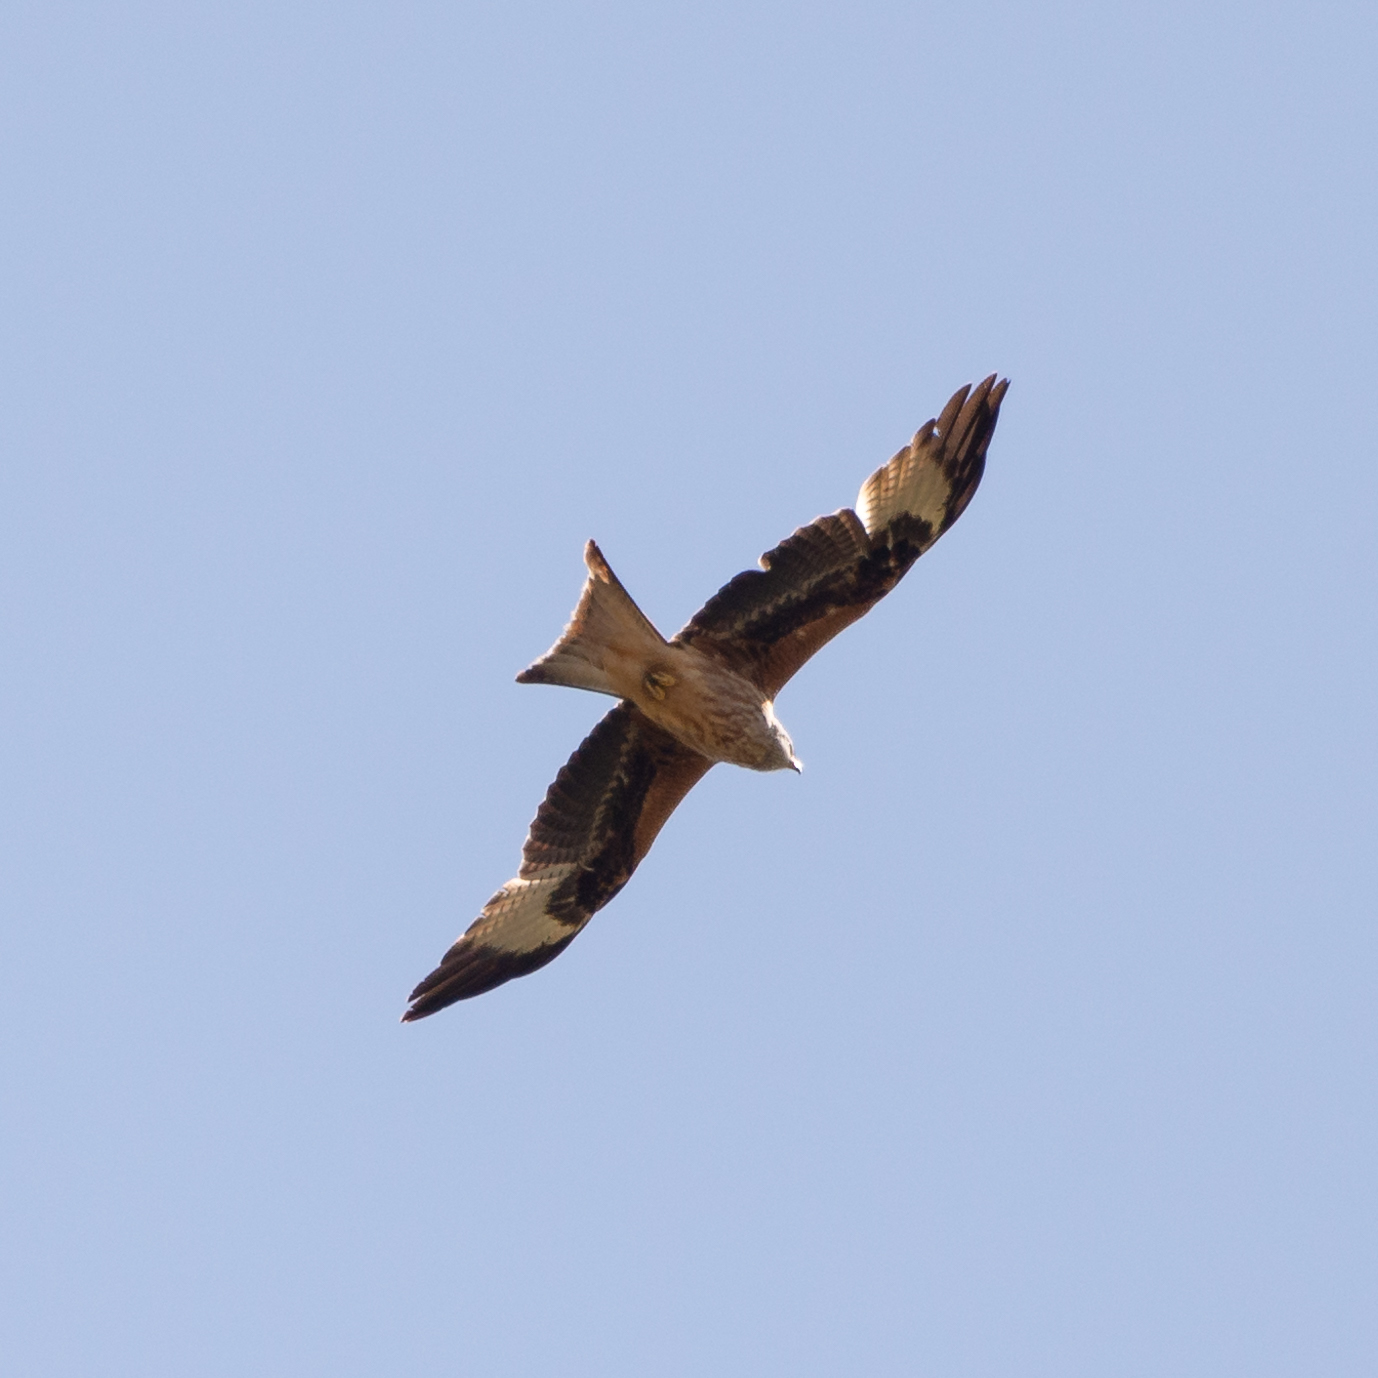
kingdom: Animalia
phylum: Chordata
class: Aves
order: Accipitriformes
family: Accipitridae
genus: Milvus
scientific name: Milvus milvus
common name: Red kite
